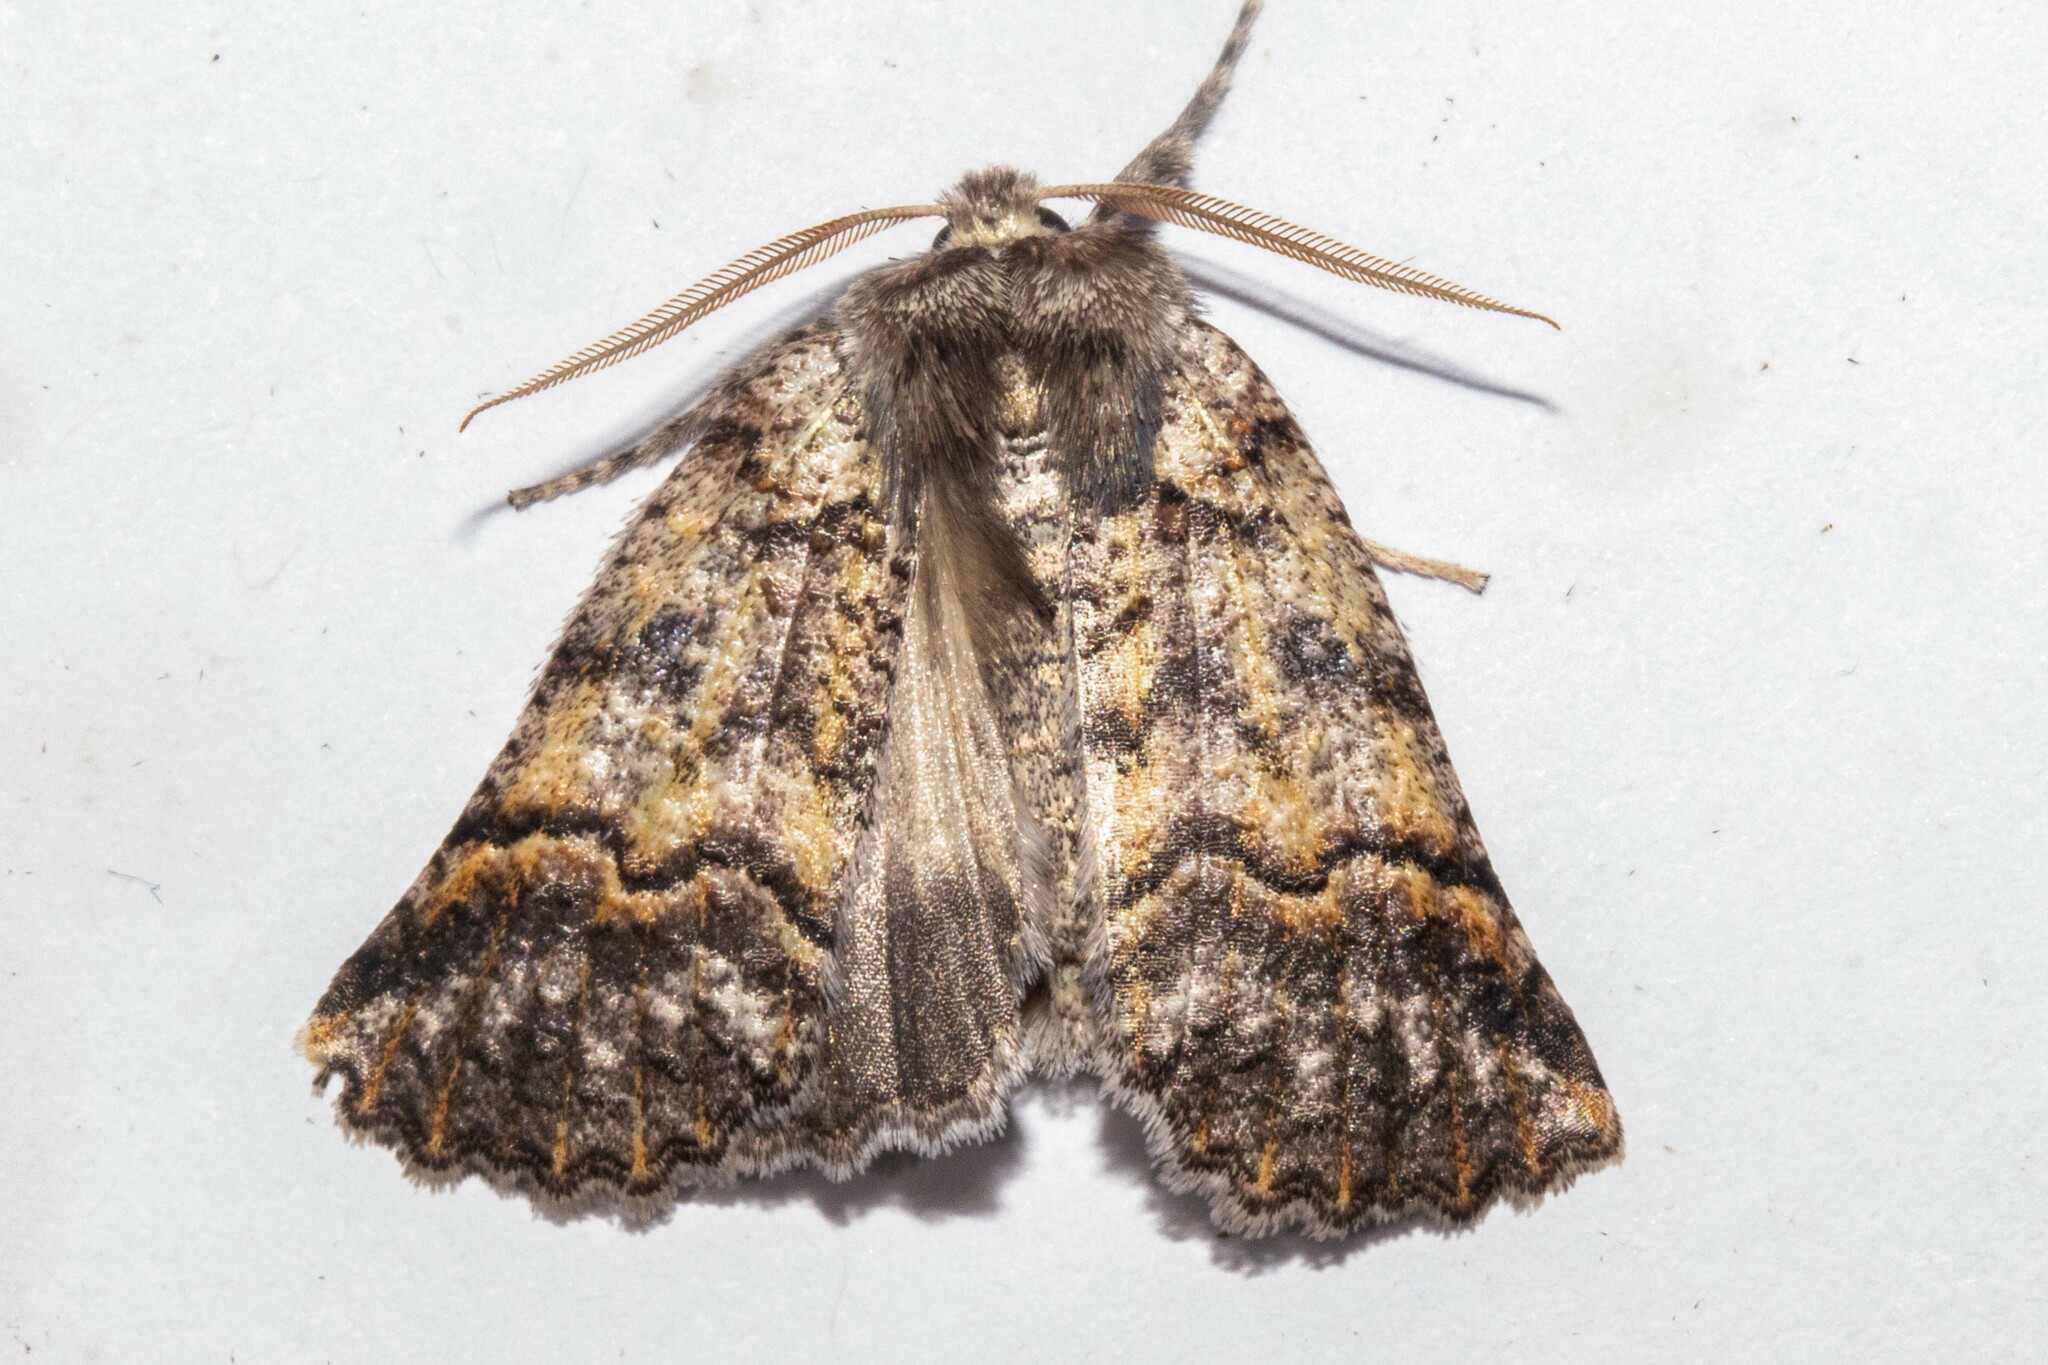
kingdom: Animalia
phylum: Arthropoda
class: Insecta
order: Lepidoptera
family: Geometridae
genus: Declana
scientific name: Declana floccosa
